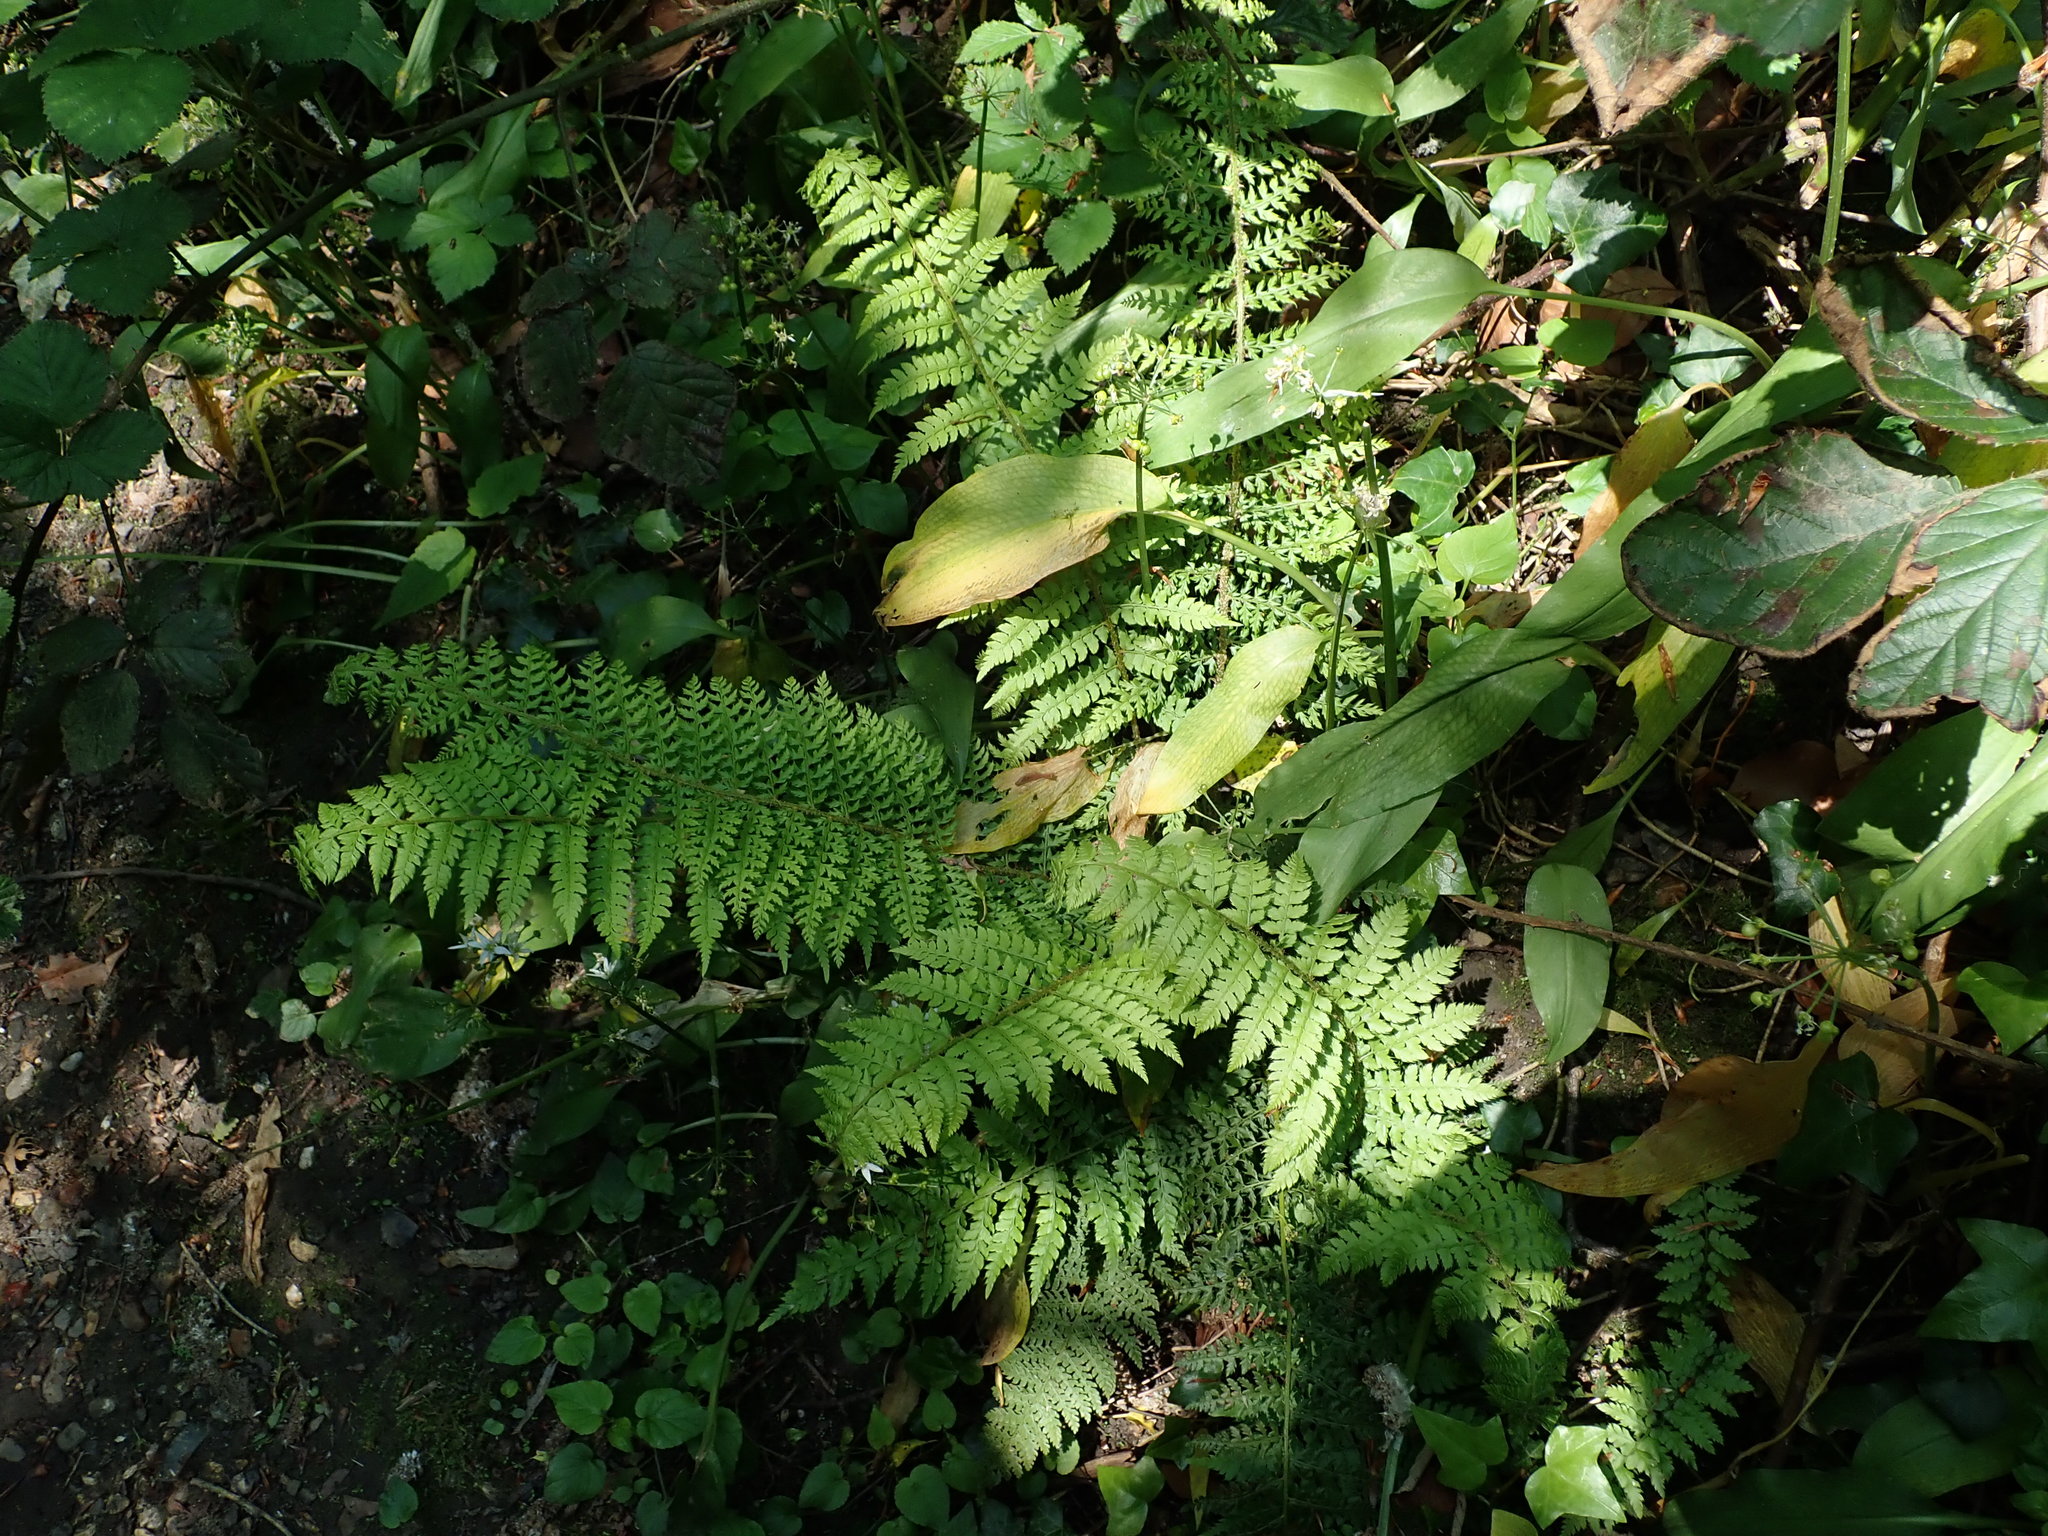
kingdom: Plantae
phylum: Tracheophyta
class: Polypodiopsida
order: Polypodiales
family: Dryopteridaceae
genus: Polystichum
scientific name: Polystichum setiferum
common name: Soft shield-fern
